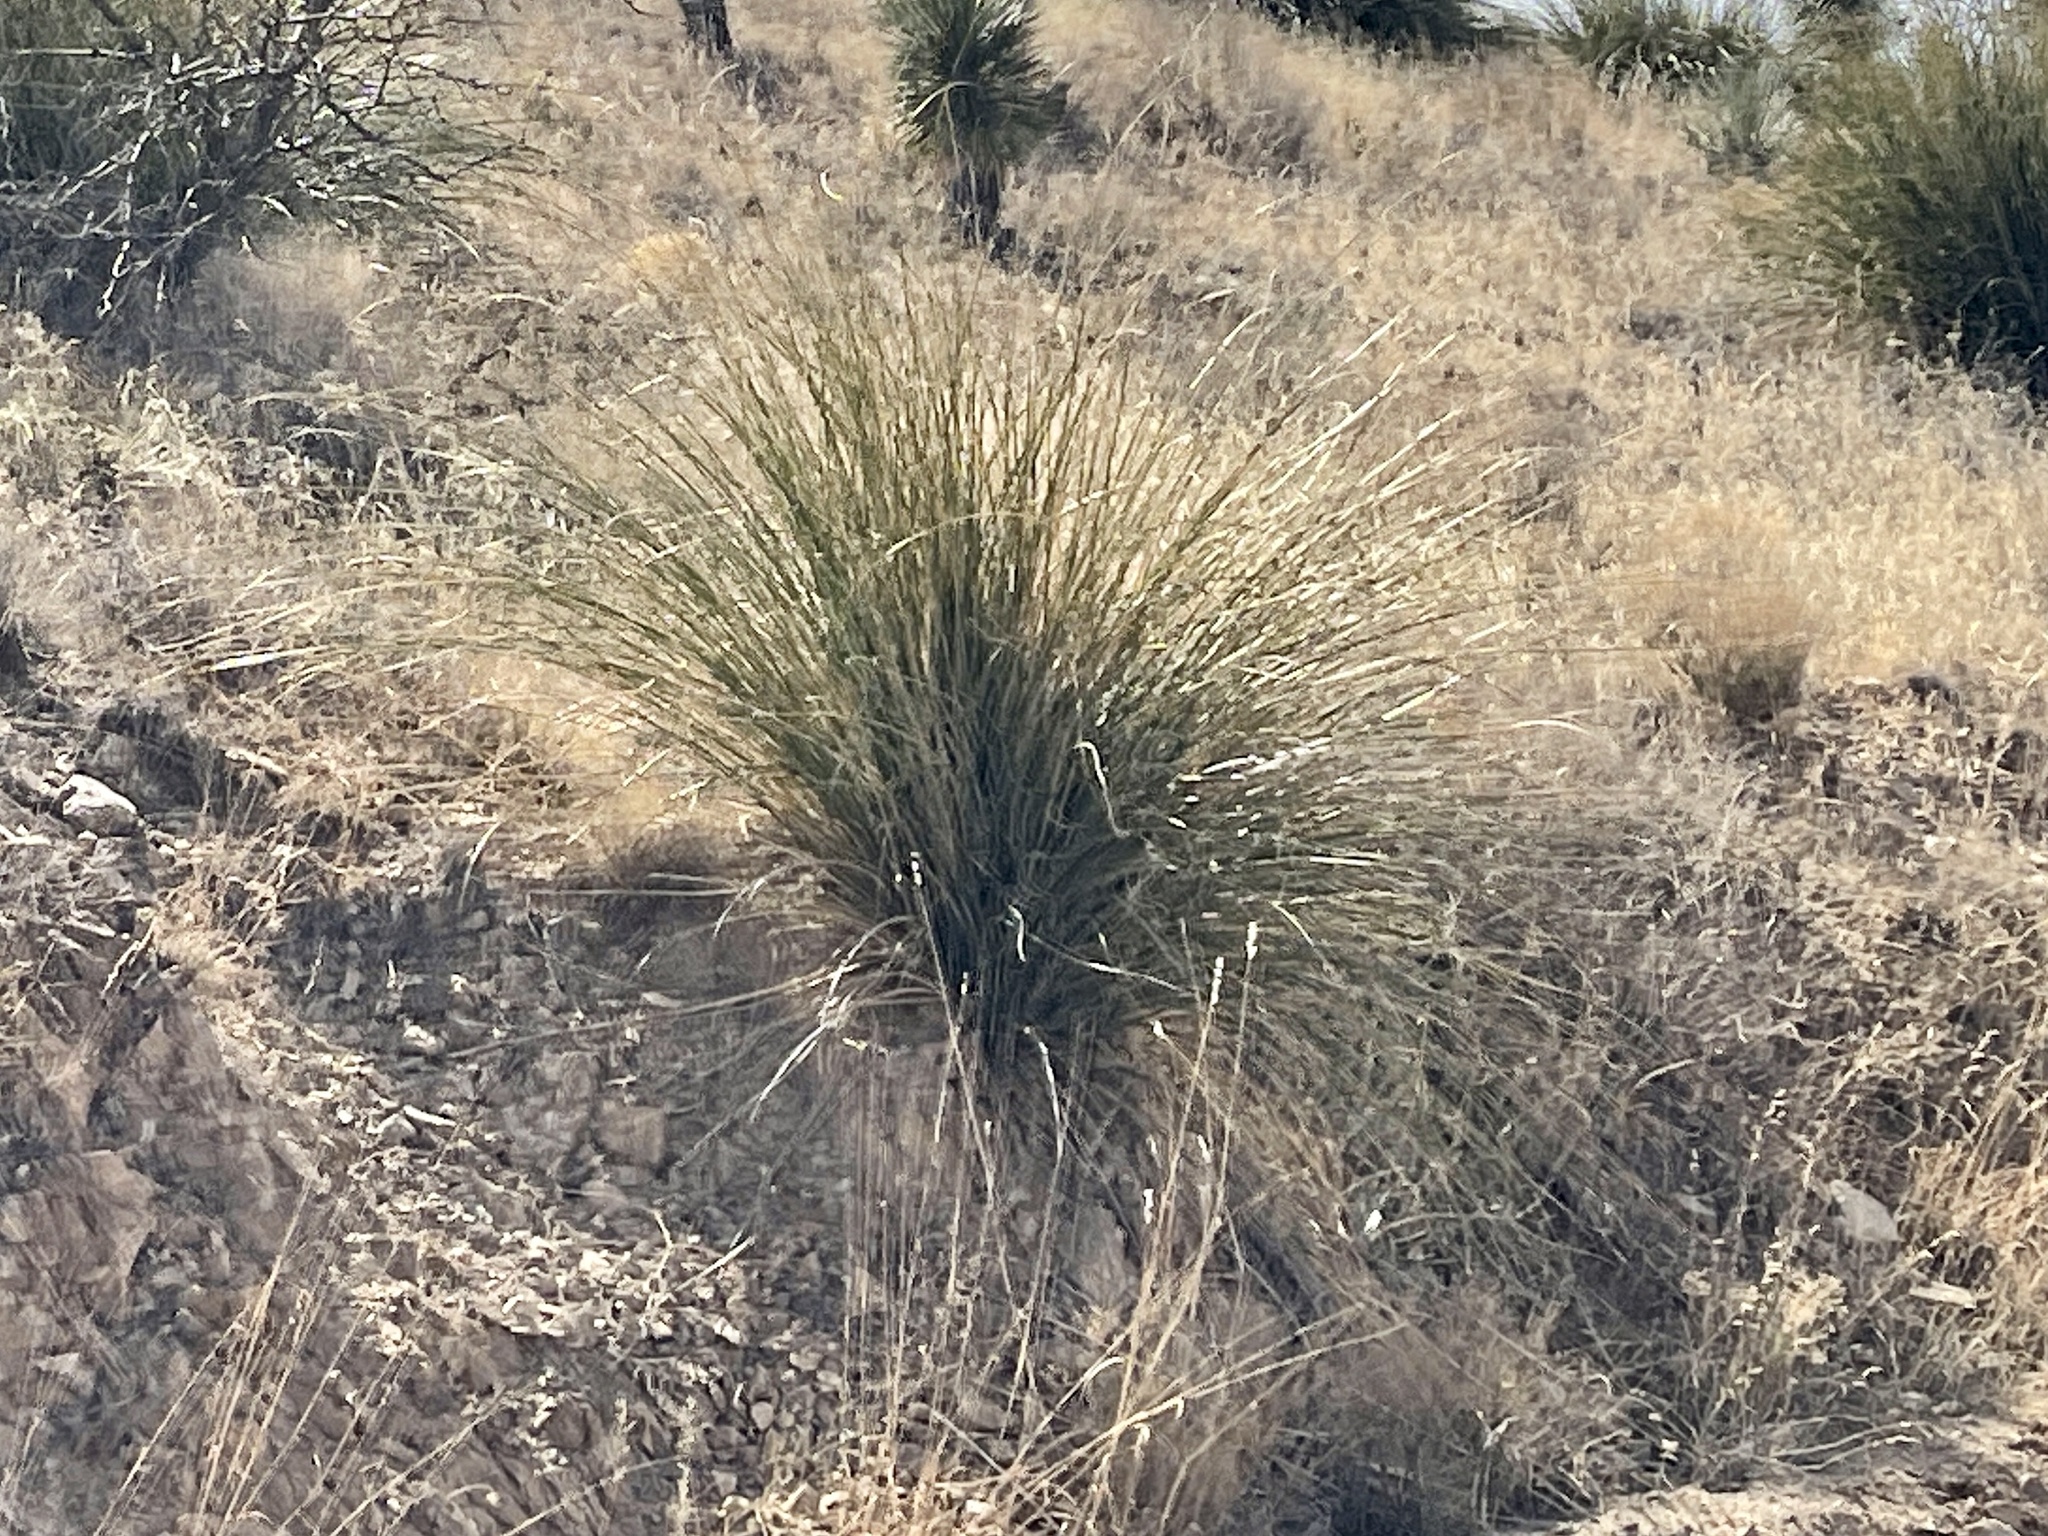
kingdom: Plantae
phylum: Tracheophyta
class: Liliopsida
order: Asparagales
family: Asparagaceae
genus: Nolina
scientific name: Nolina microcarpa
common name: Bear-grass
